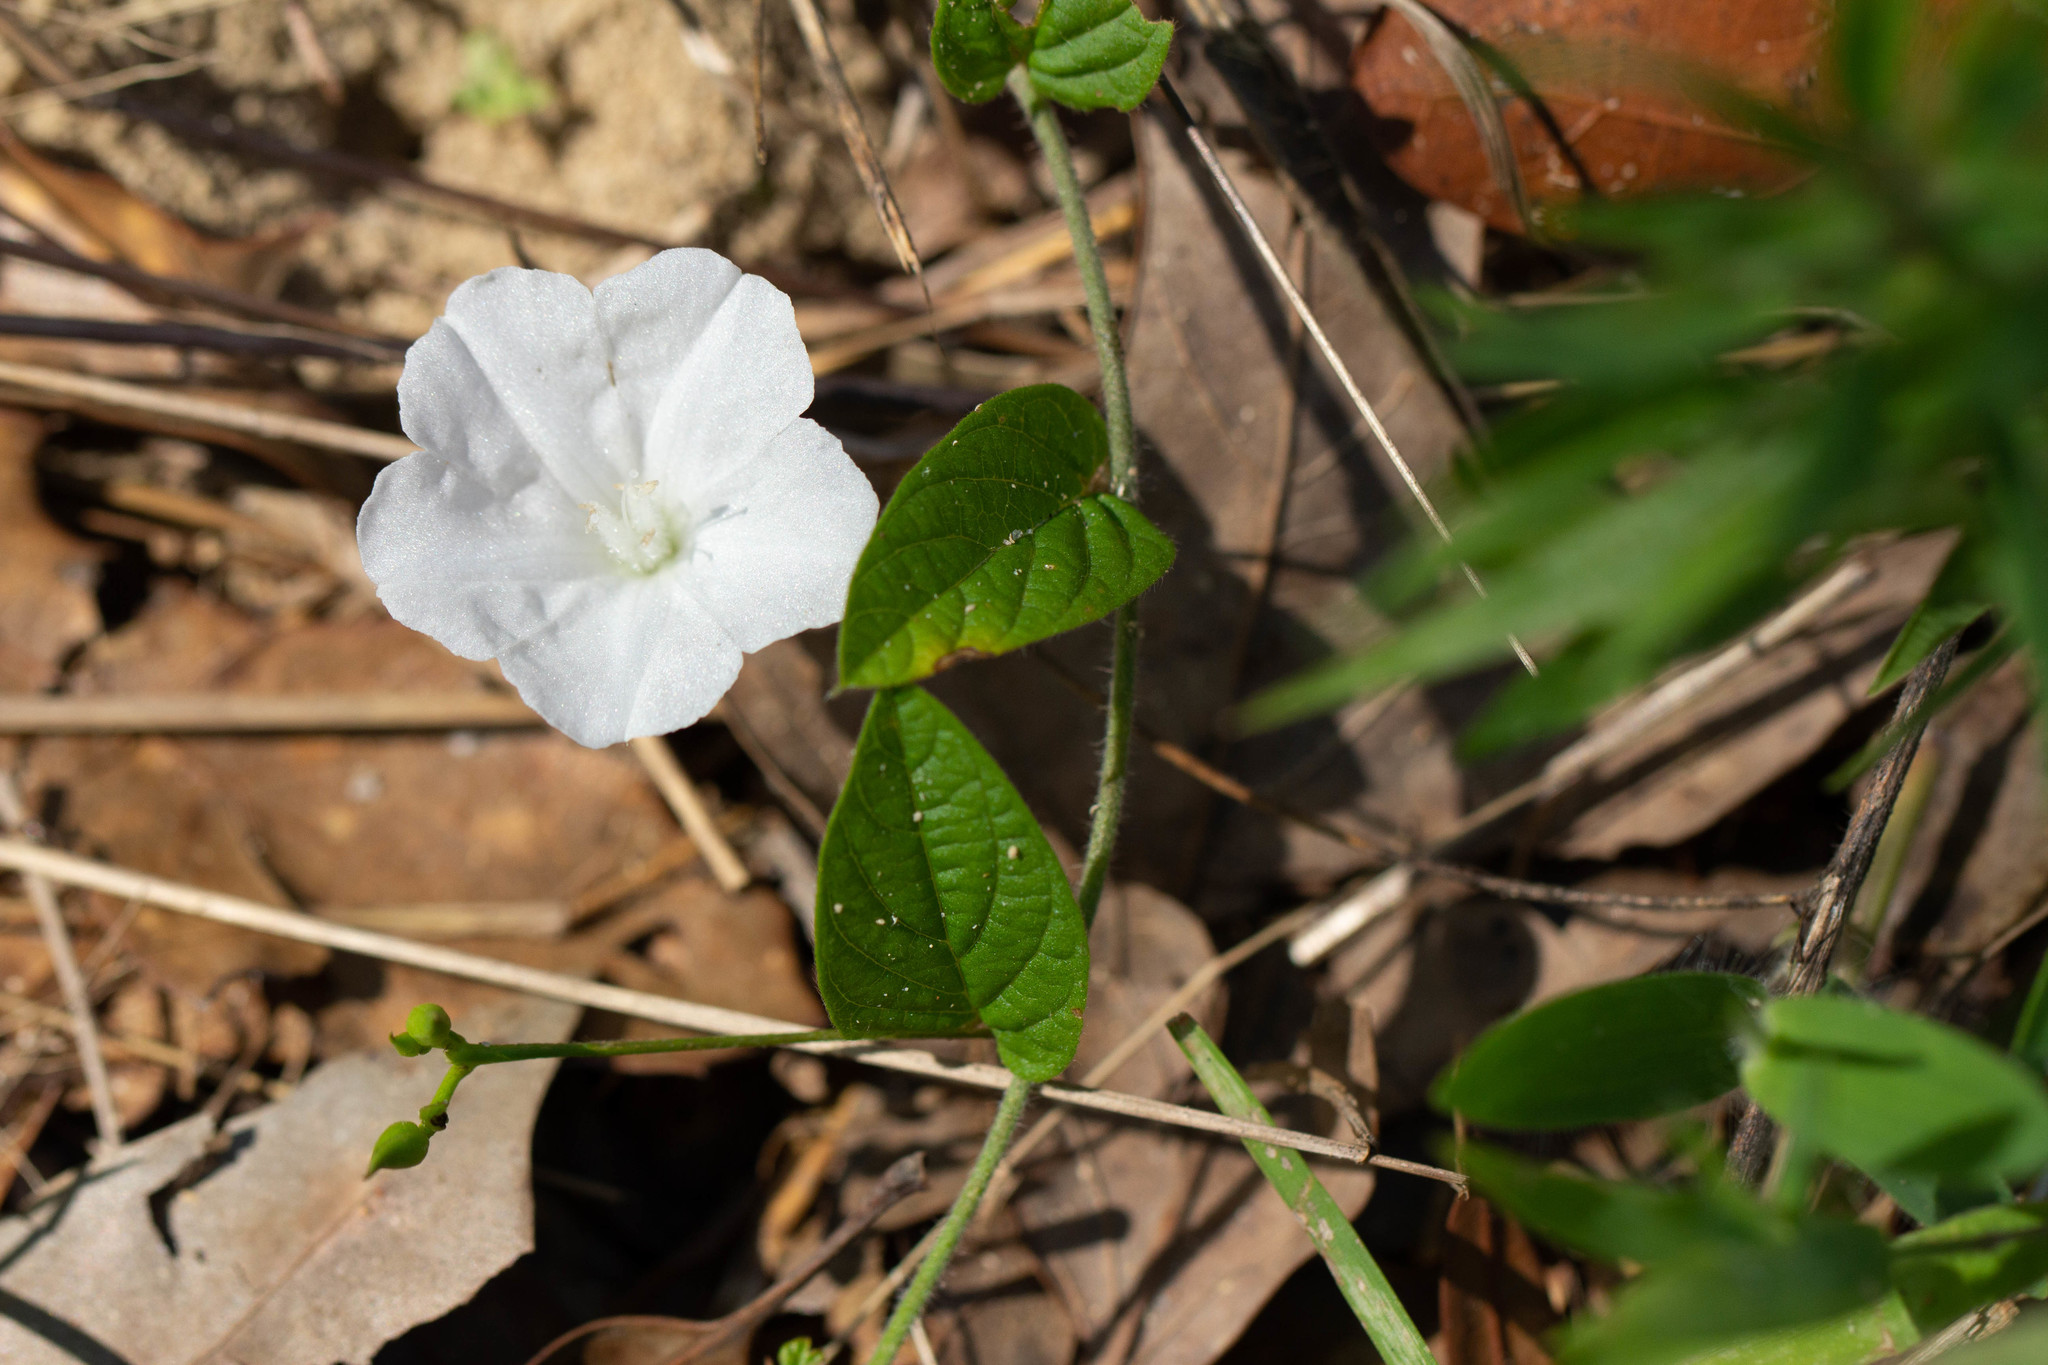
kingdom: Plantae
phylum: Tracheophyta
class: Magnoliopsida
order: Solanales
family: Convolvulaceae
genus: Stylisma
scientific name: Stylisma humistrata
